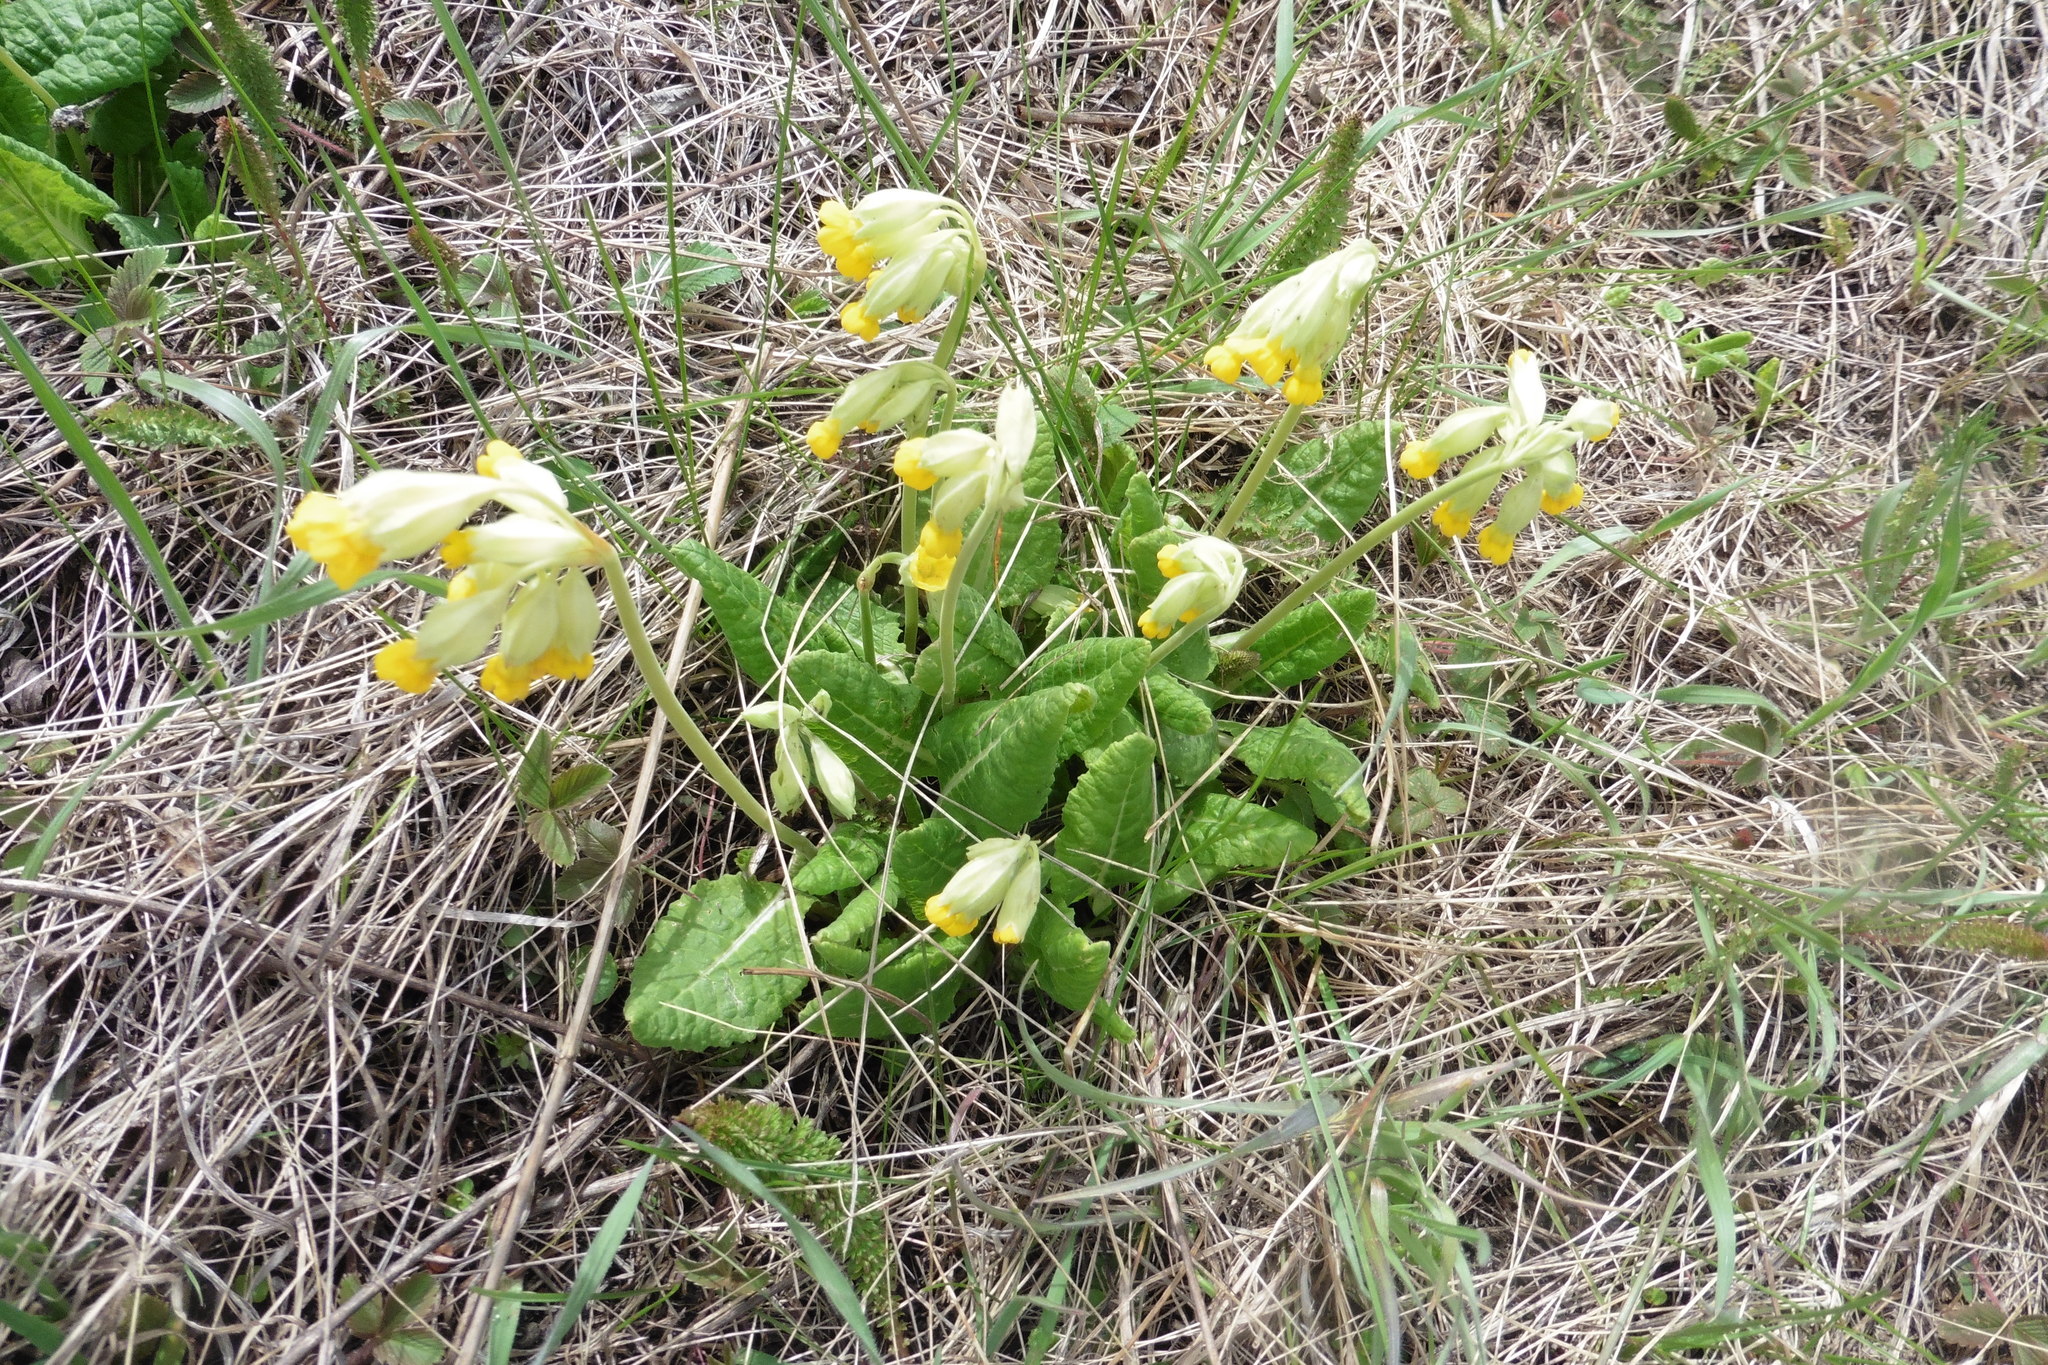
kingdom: Plantae
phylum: Tracheophyta
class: Magnoliopsida
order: Ericales
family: Primulaceae
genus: Primula
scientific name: Primula veris
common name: Cowslip
